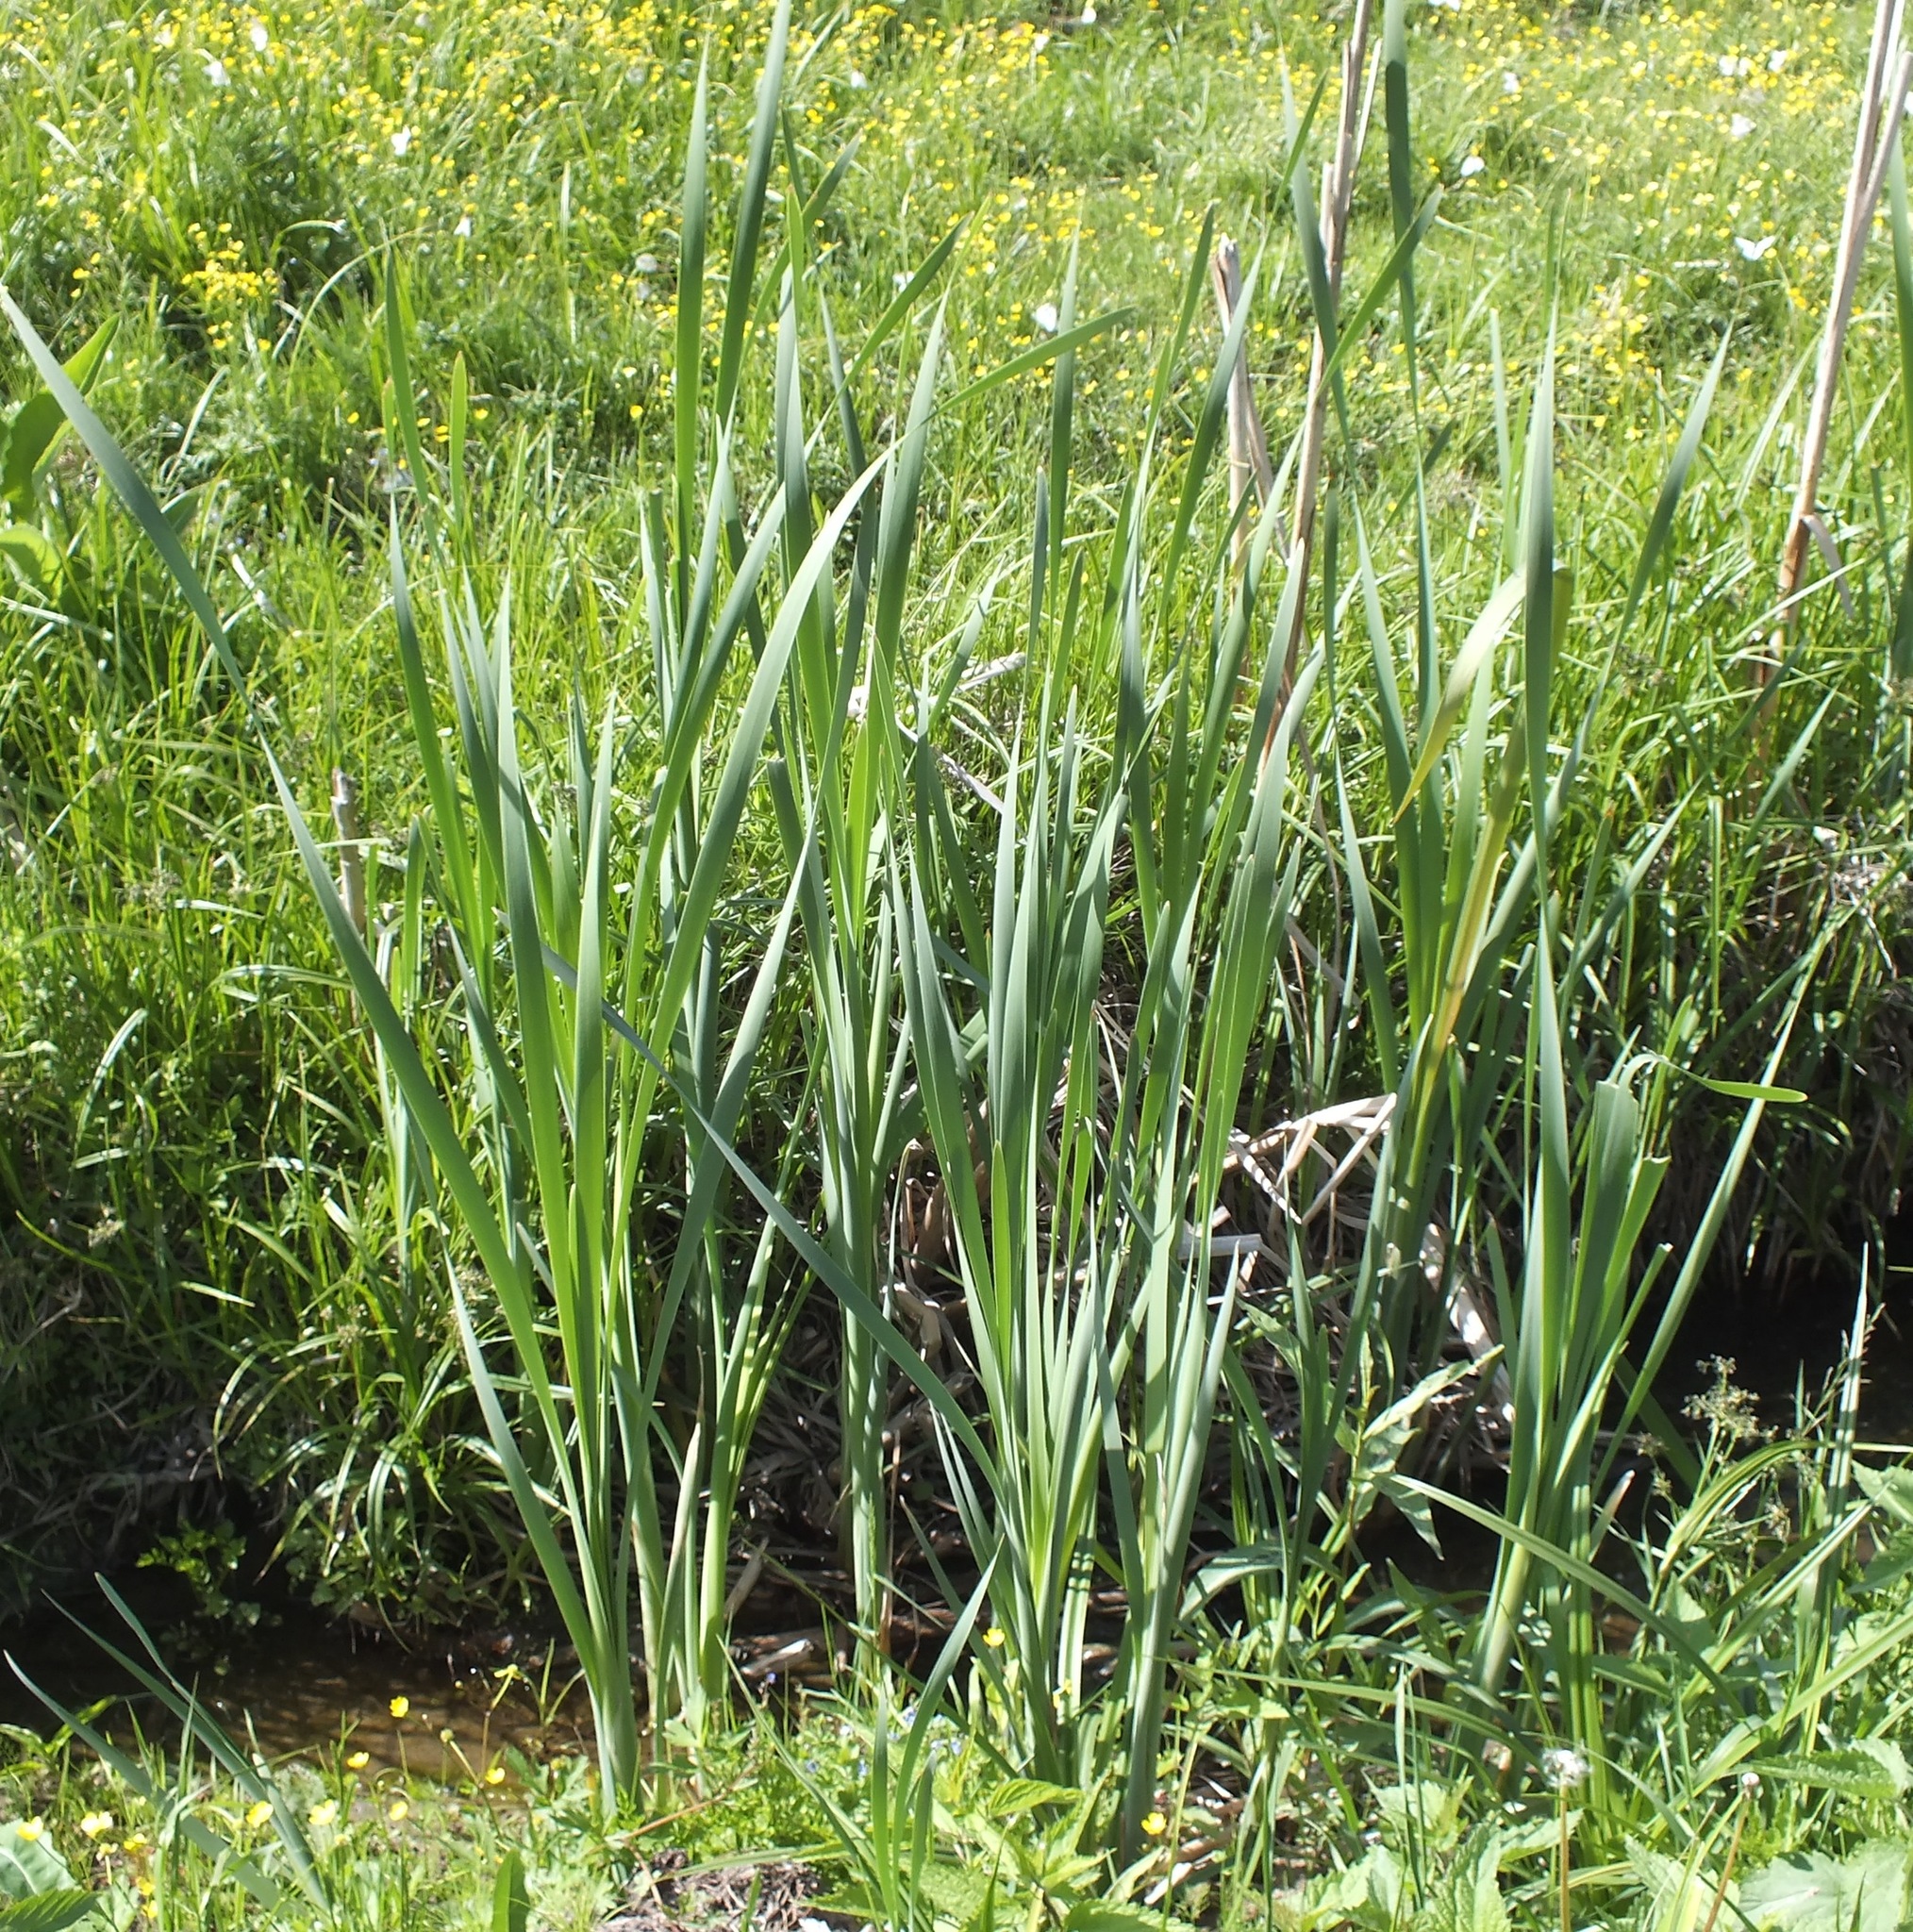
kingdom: Plantae
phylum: Tracheophyta
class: Liliopsida
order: Poales
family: Typhaceae
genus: Typha
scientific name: Typha latifolia
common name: Broadleaf cattail
